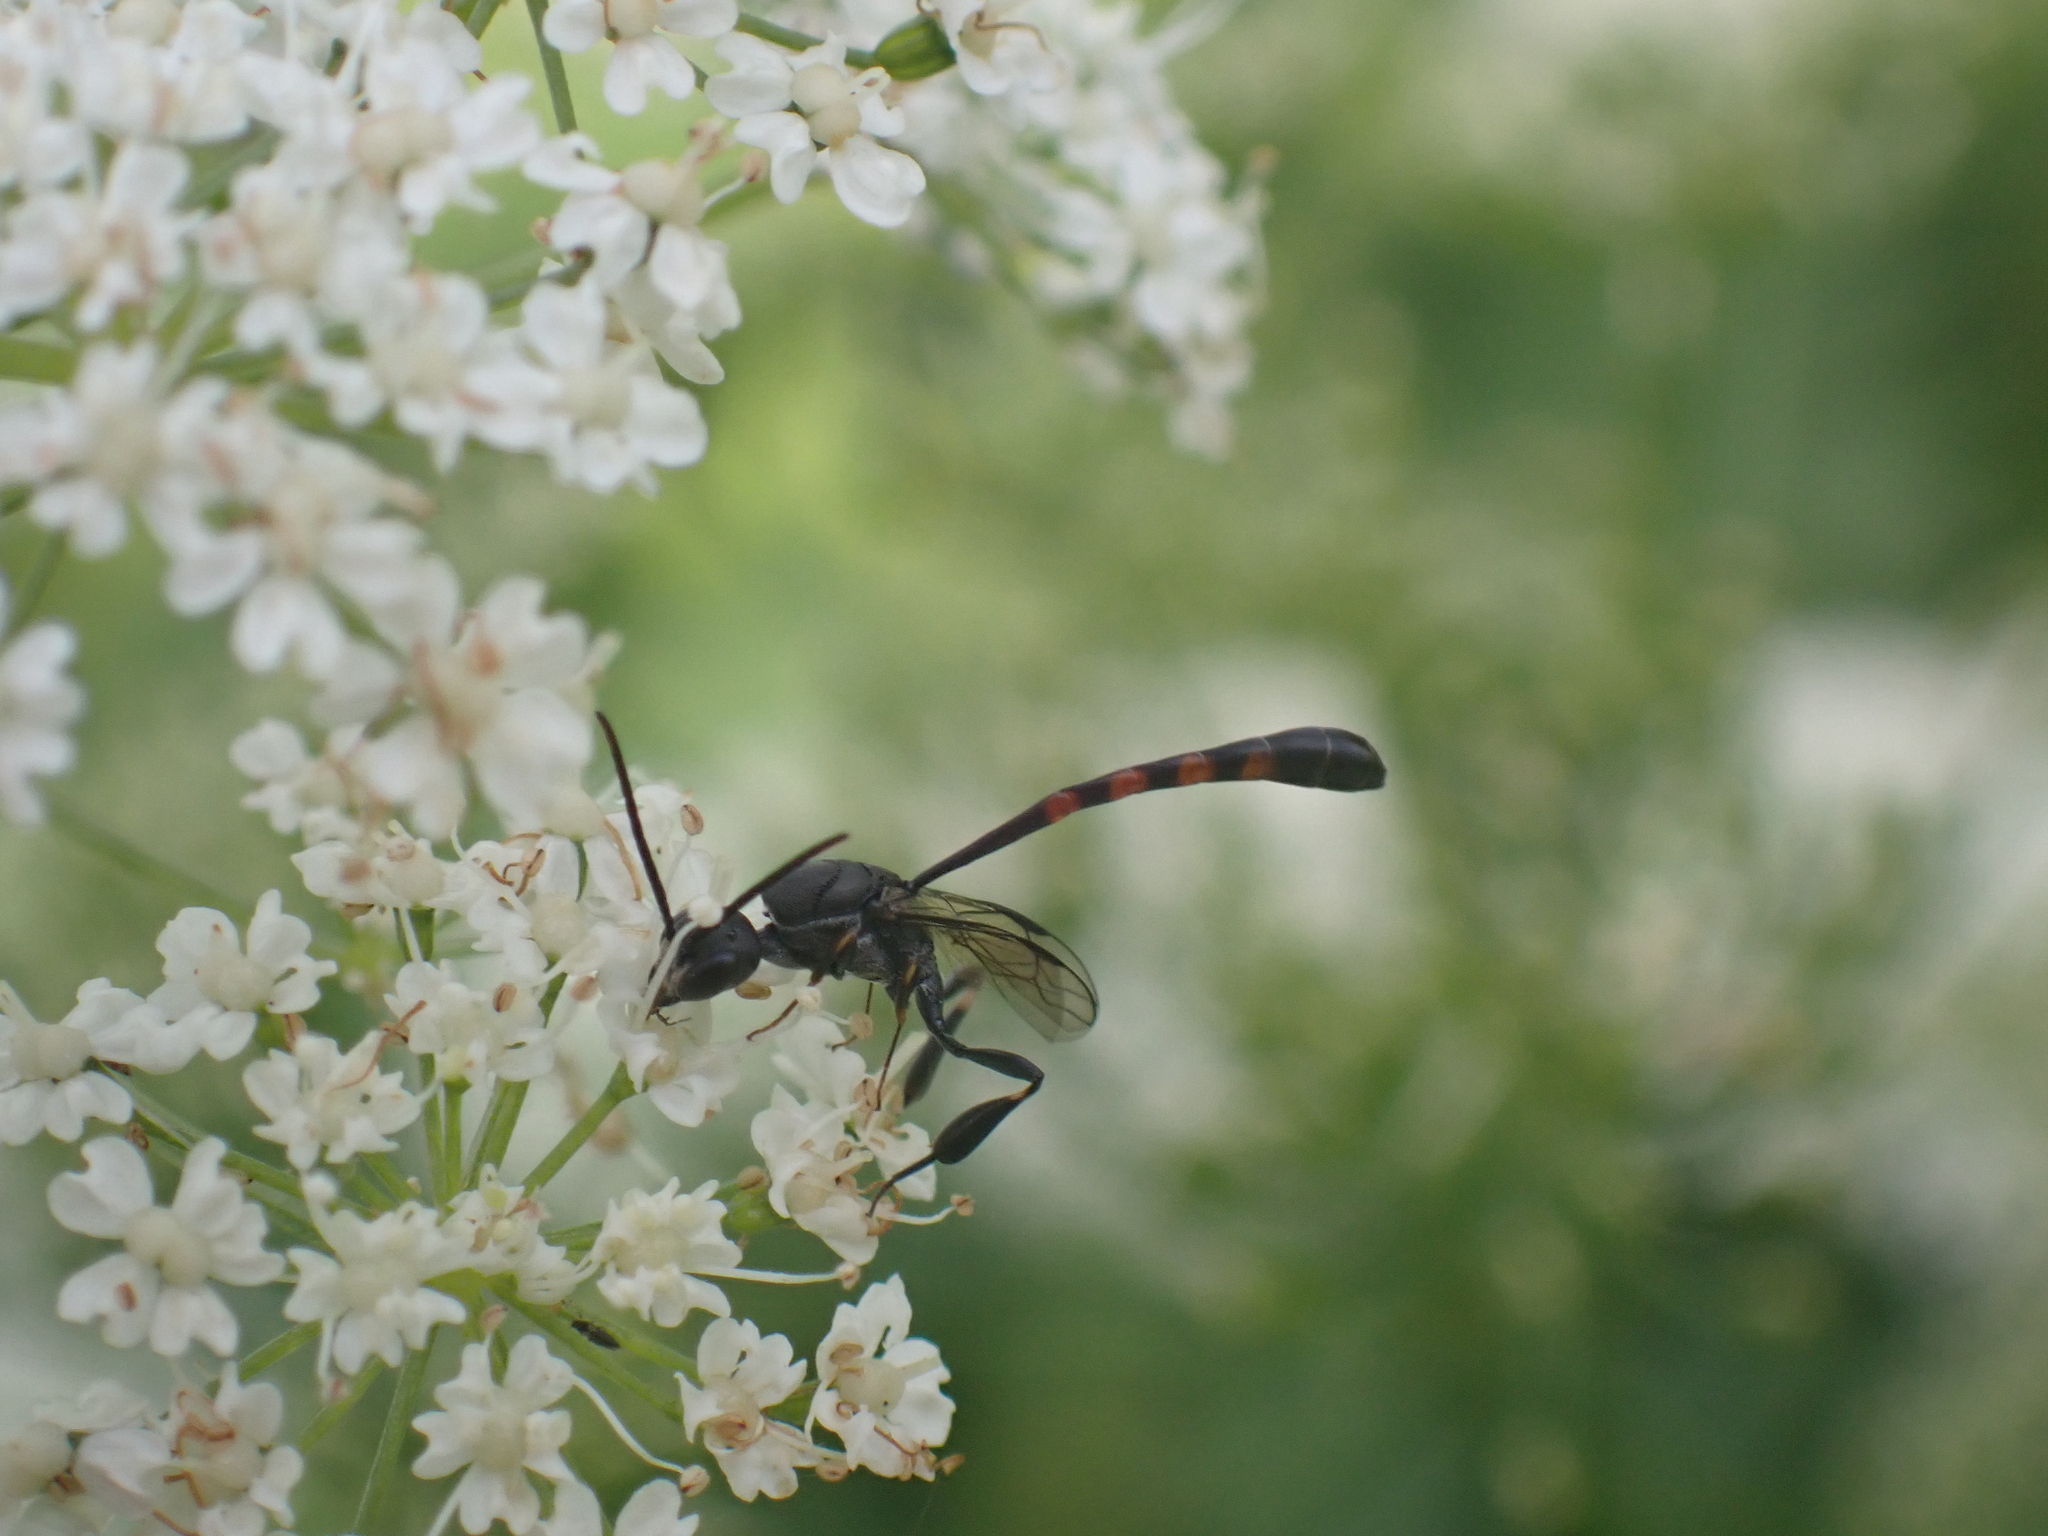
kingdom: Animalia
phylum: Arthropoda
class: Insecta
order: Hymenoptera
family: Gasteruptiidae
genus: Gasteruption
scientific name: Gasteruption
